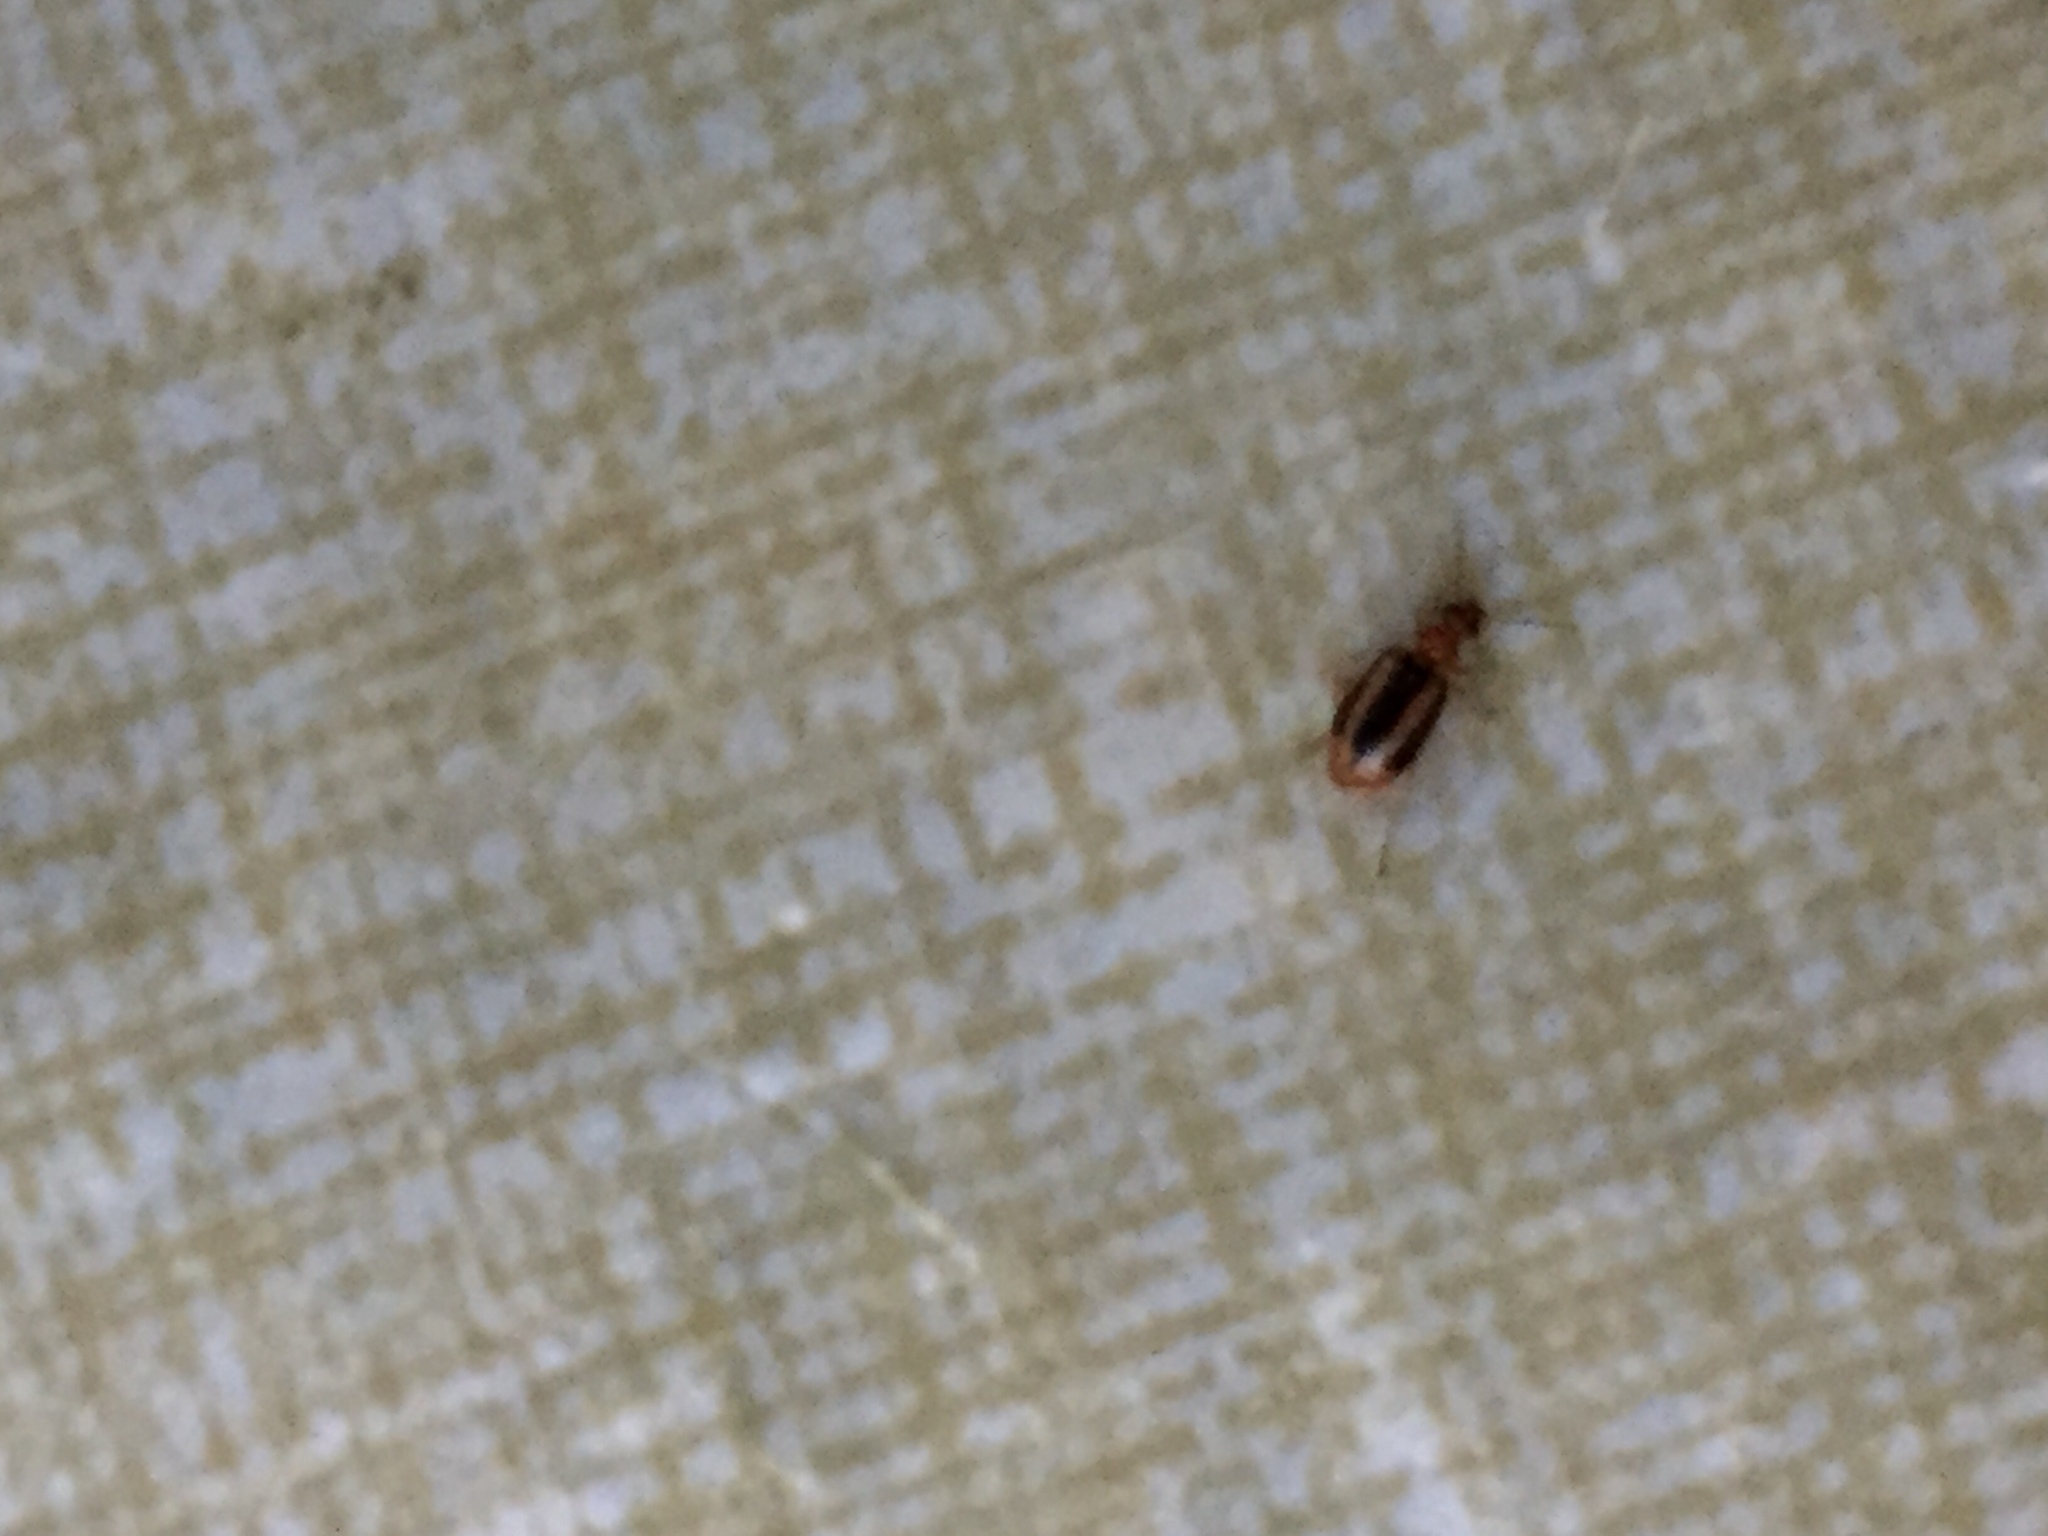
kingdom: Animalia
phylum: Arthropoda
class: Insecta
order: Coleoptera
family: Carabidae
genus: Lebia
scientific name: Lebia solea
